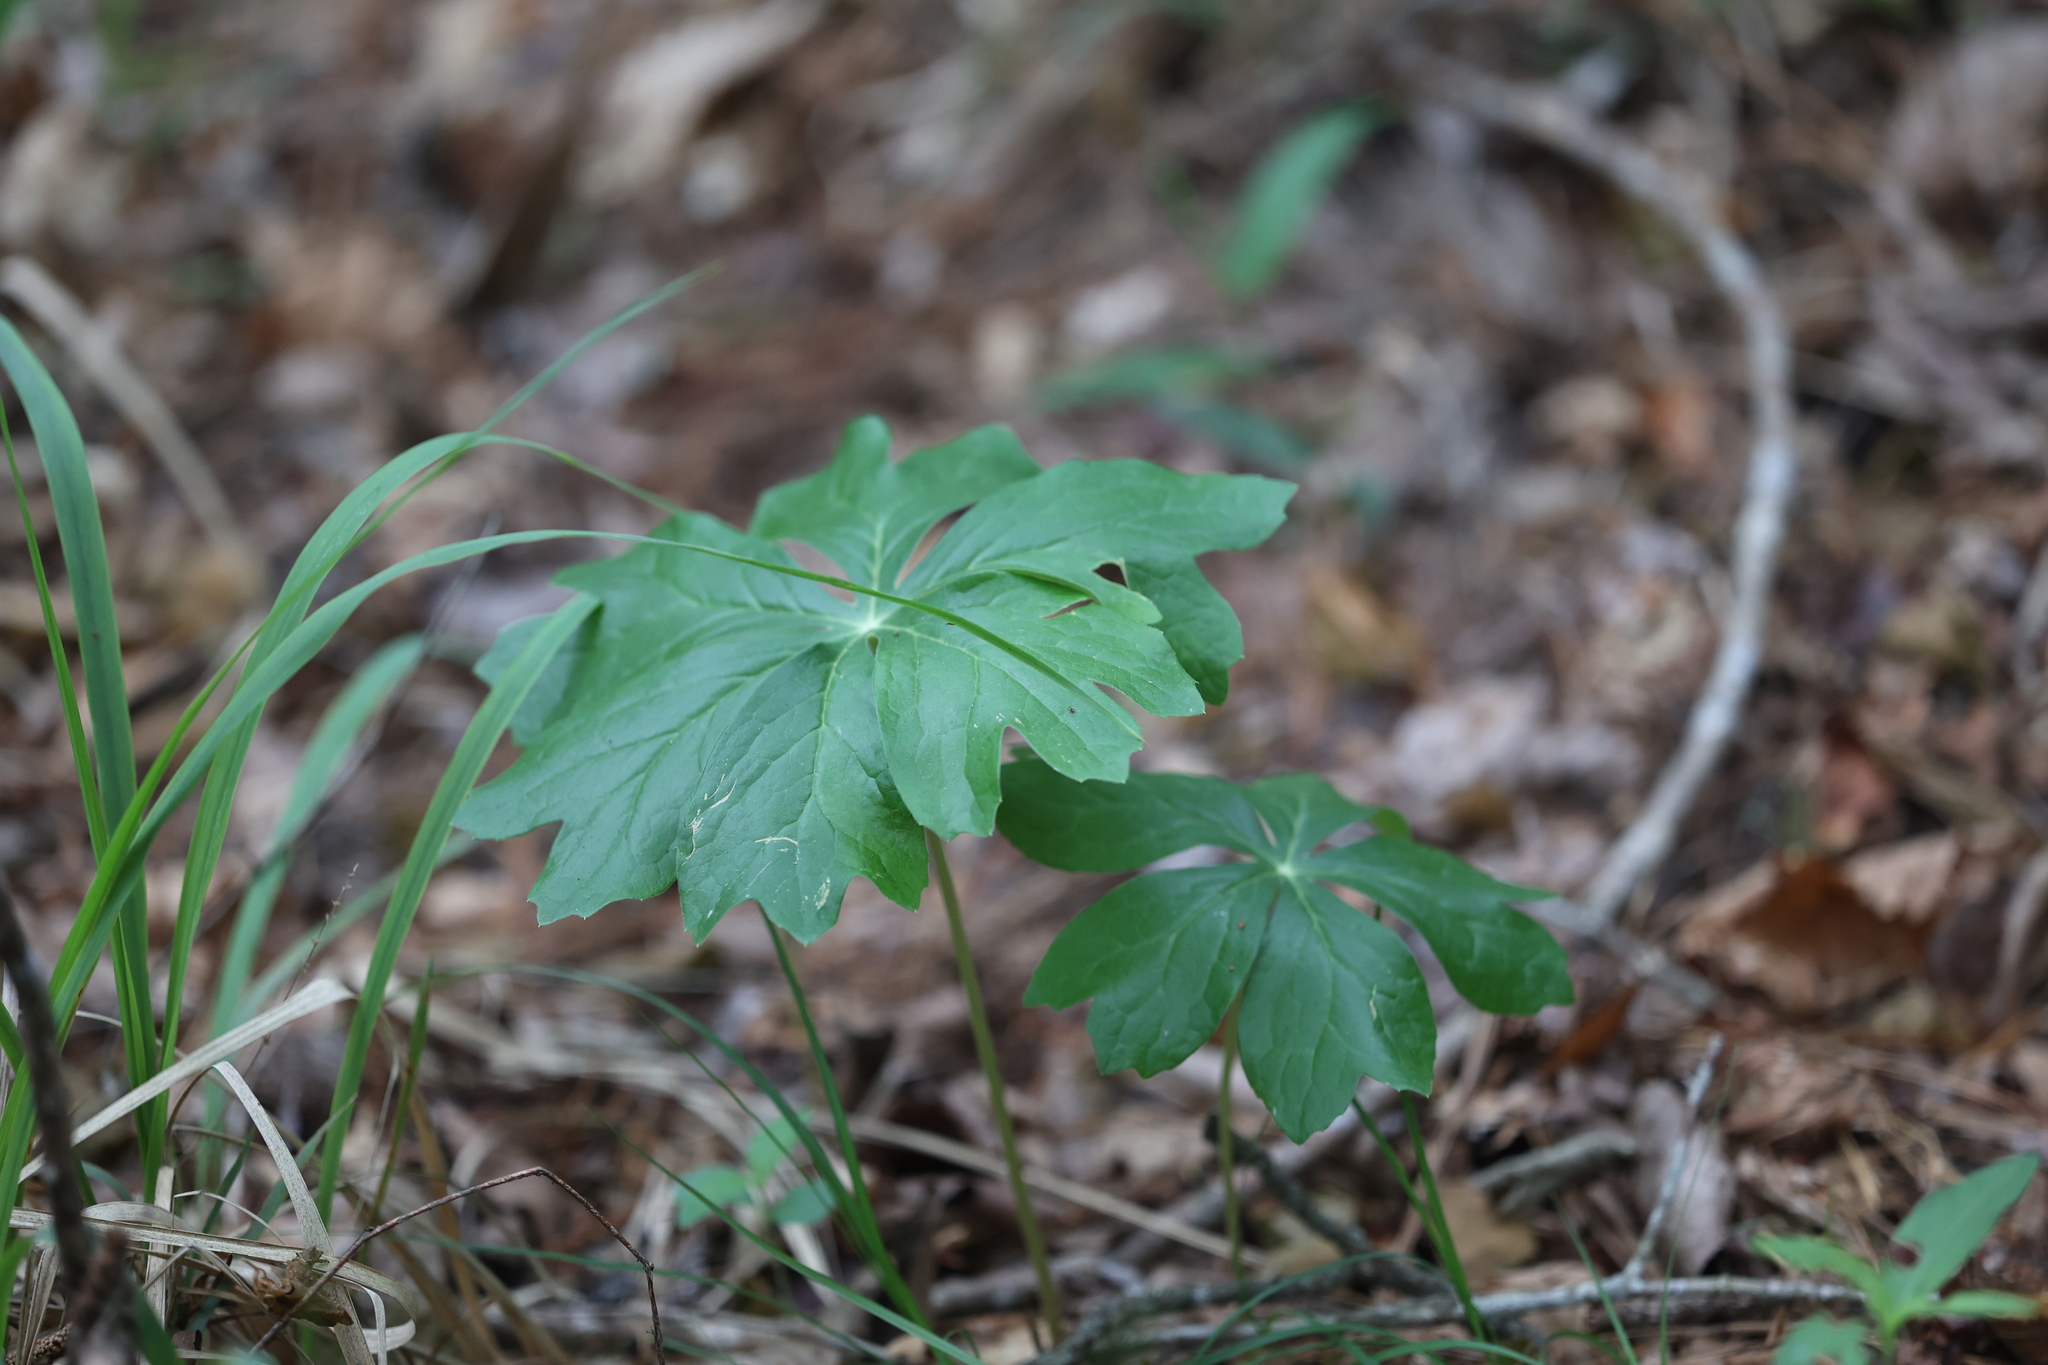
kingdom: Plantae
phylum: Tracheophyta
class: Magnoliopsida
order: Ranunculales
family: Berberidaceae
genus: Podophyllum
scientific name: Podophyllum peltatum
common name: Wild mandrake
